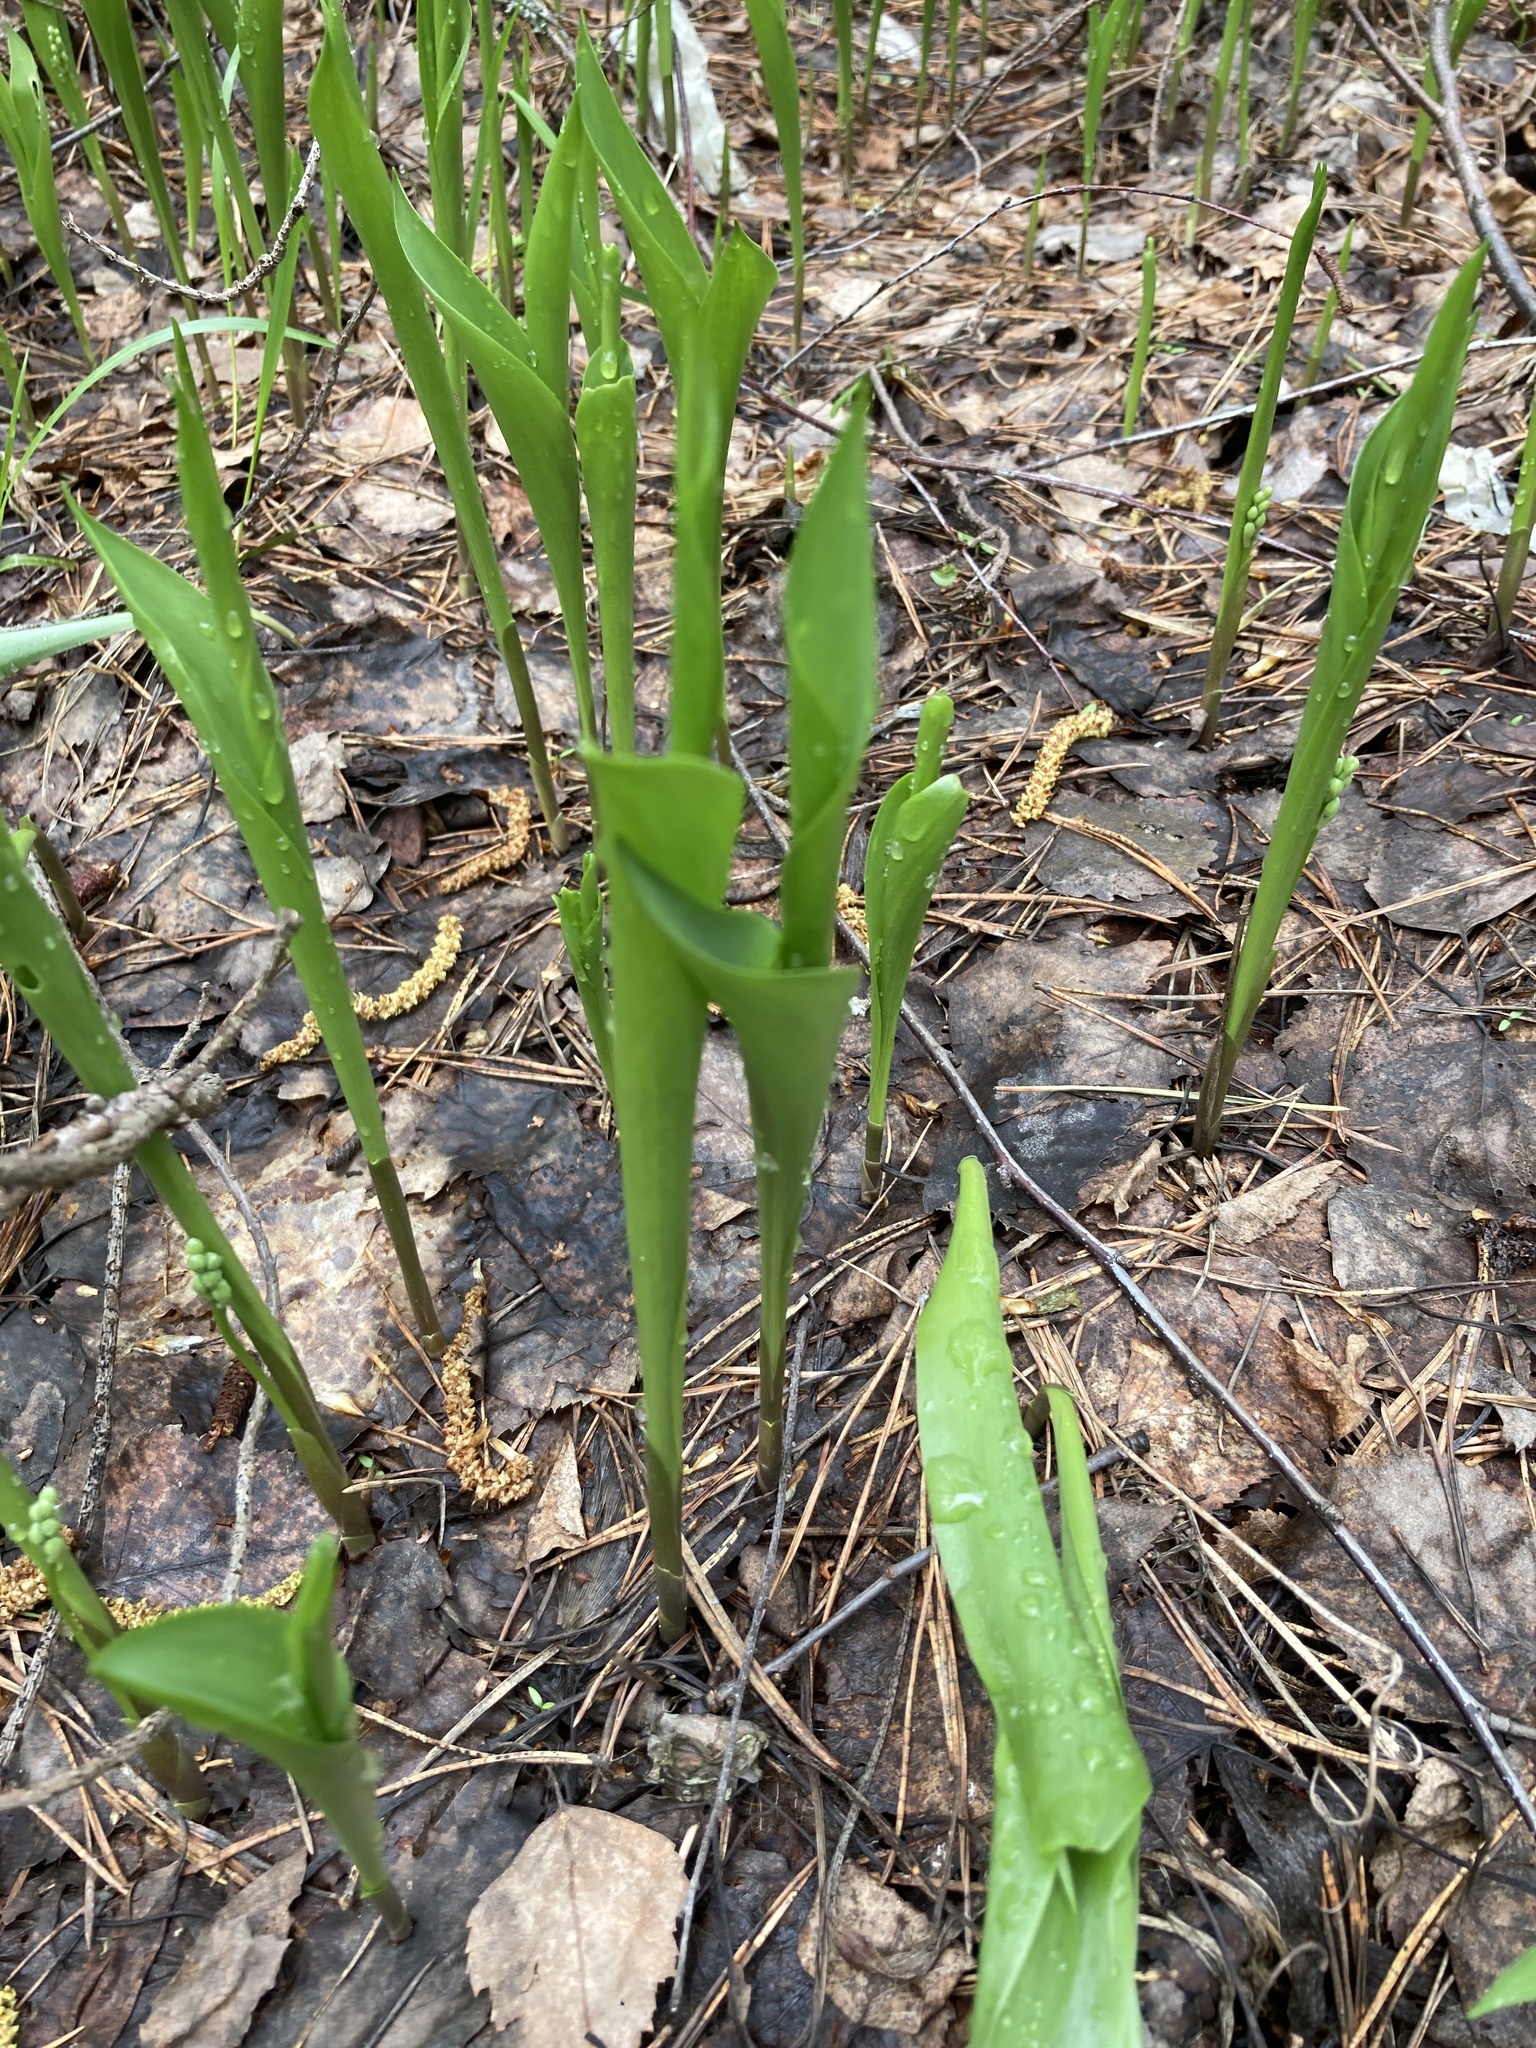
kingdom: Plantae
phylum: Tracheophyta
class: Liliopsida
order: Asparagales
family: Asparagaceae
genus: Convallaria
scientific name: Convallaria majalis
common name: Lily-of-the-valley
